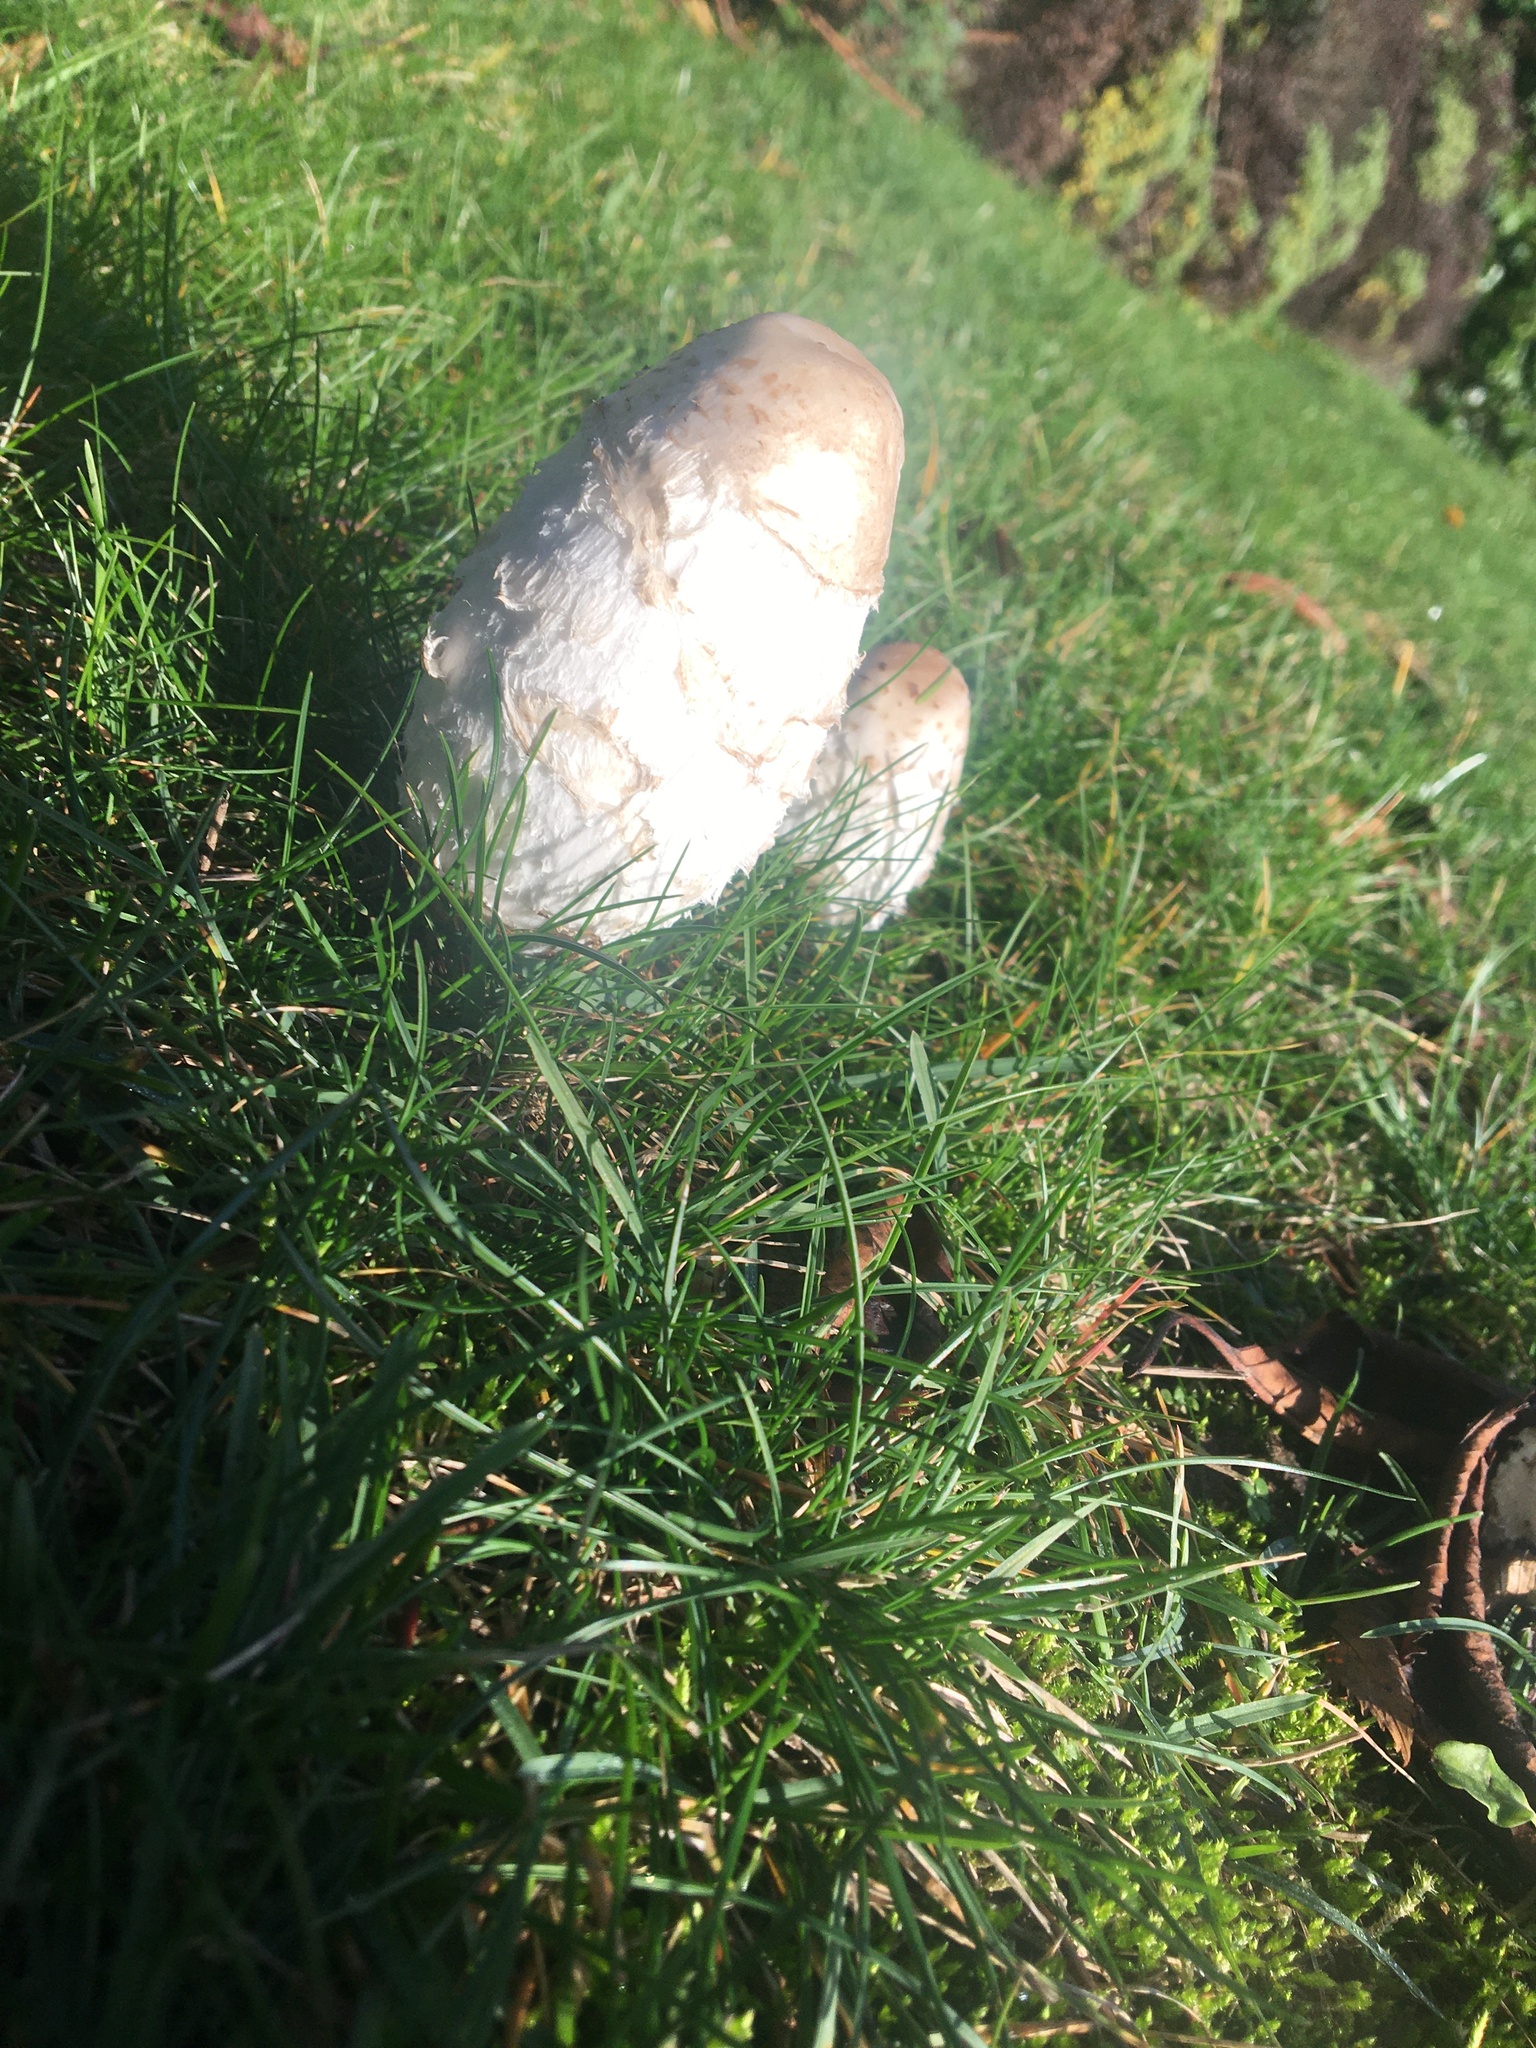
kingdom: Fungi
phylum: Basidiomycota
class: Agaricomycetes
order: Agaricales
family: Agaricaceae
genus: Coprinus
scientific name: Coprinus comatus
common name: Lawyer's wig
